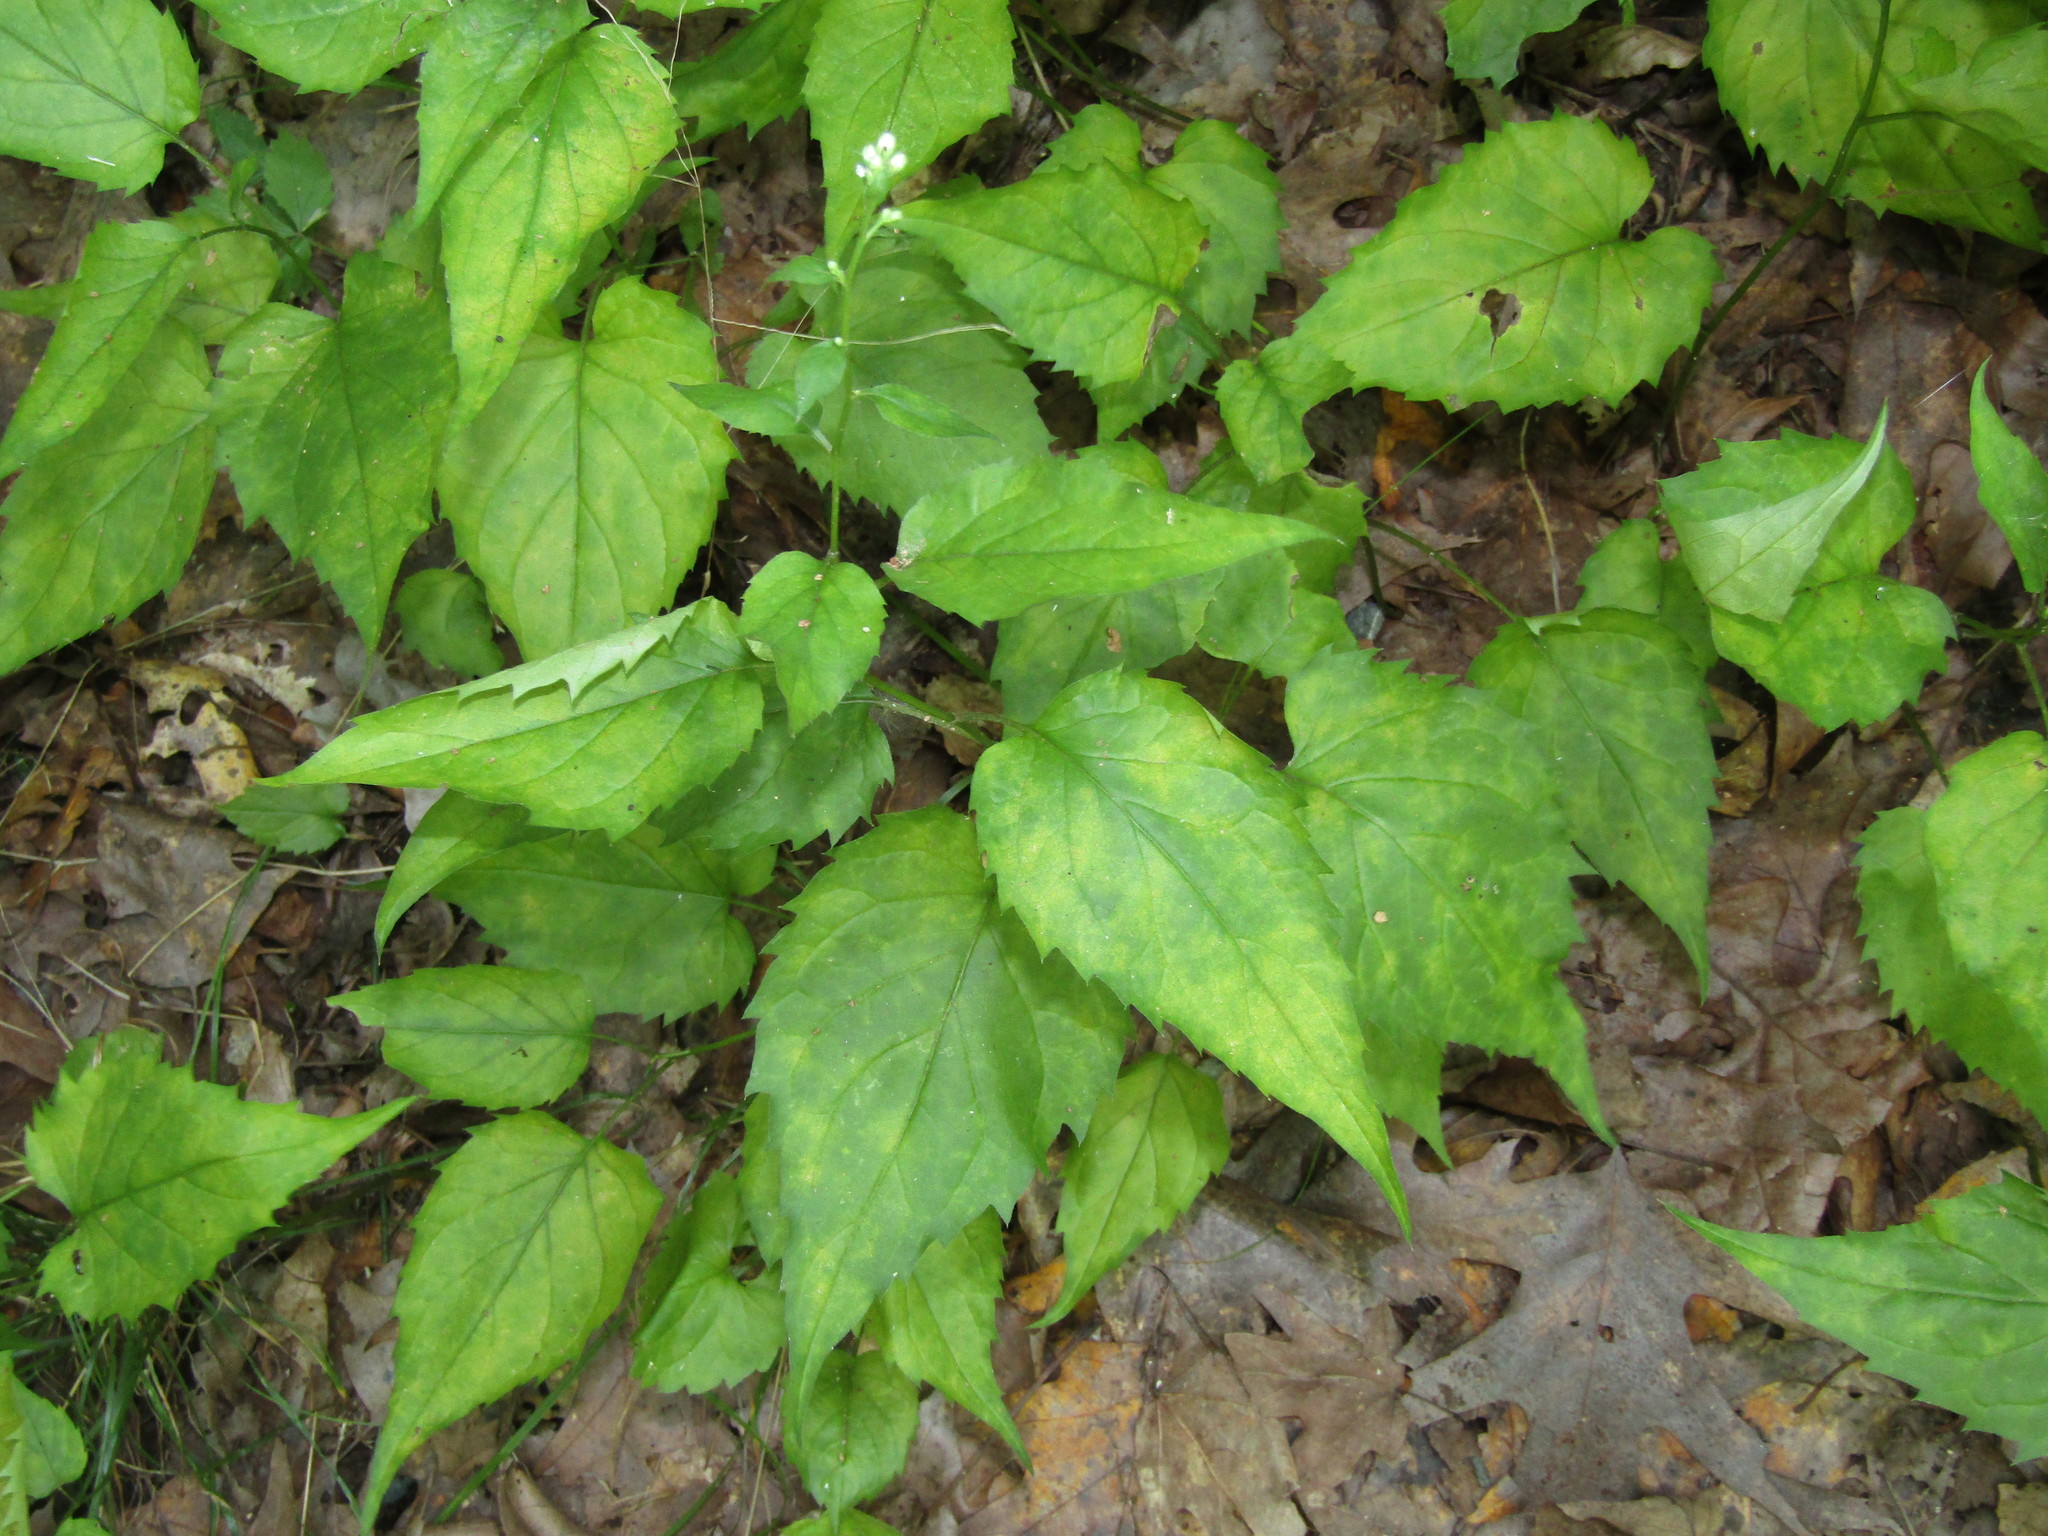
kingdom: Plantae
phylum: Tracheophyta
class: Magnoliopsida
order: Asterales
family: Asteraceae
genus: Eurybia
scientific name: Eurybia divaricata
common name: White wood aster
